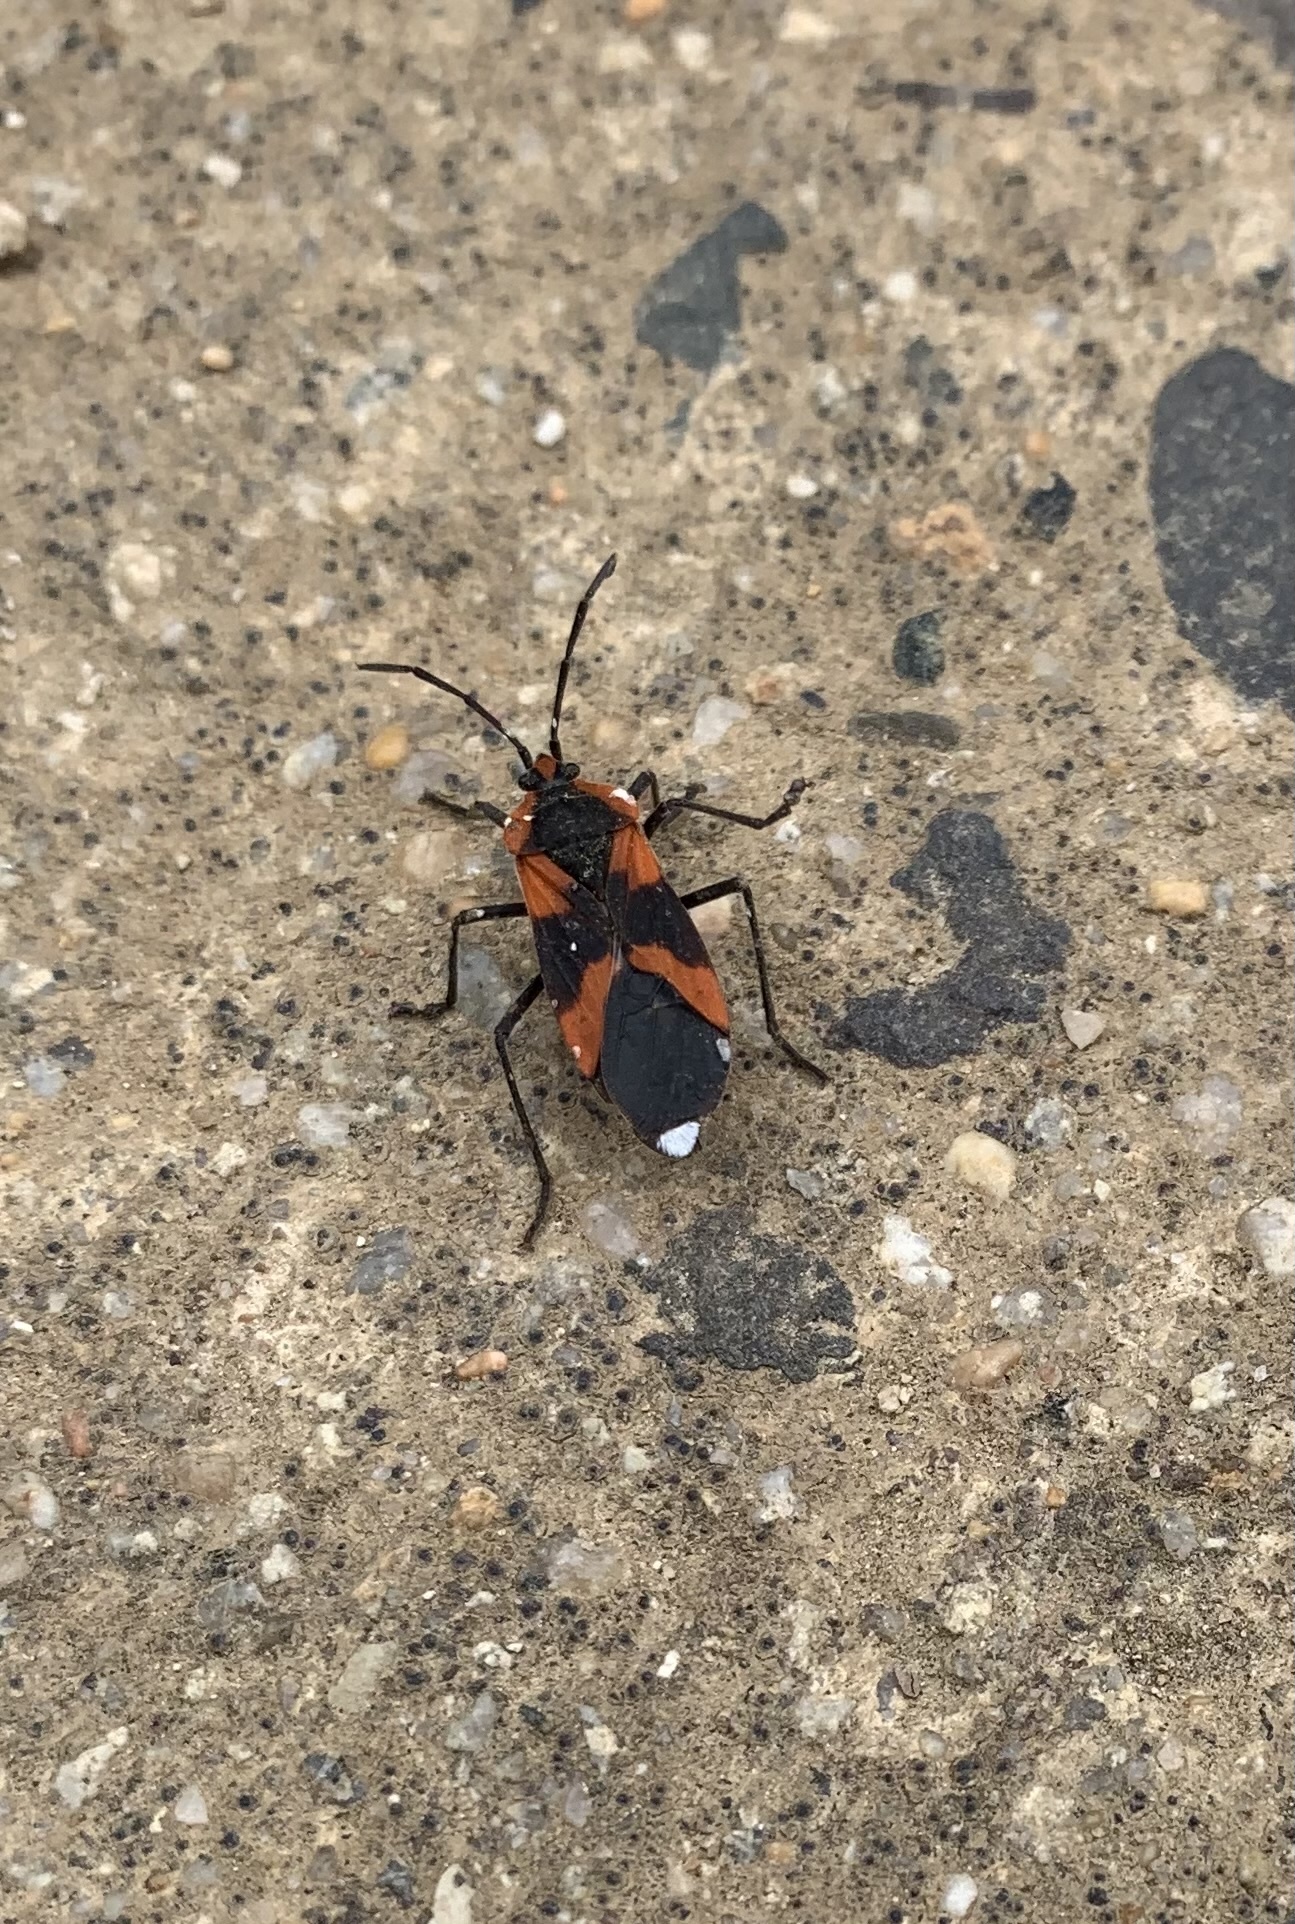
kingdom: Animalia
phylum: Arthropoda
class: Insecta
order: Hemiptera
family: Lygaeidae
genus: Oncopeltus
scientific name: Oncopeltus miles
